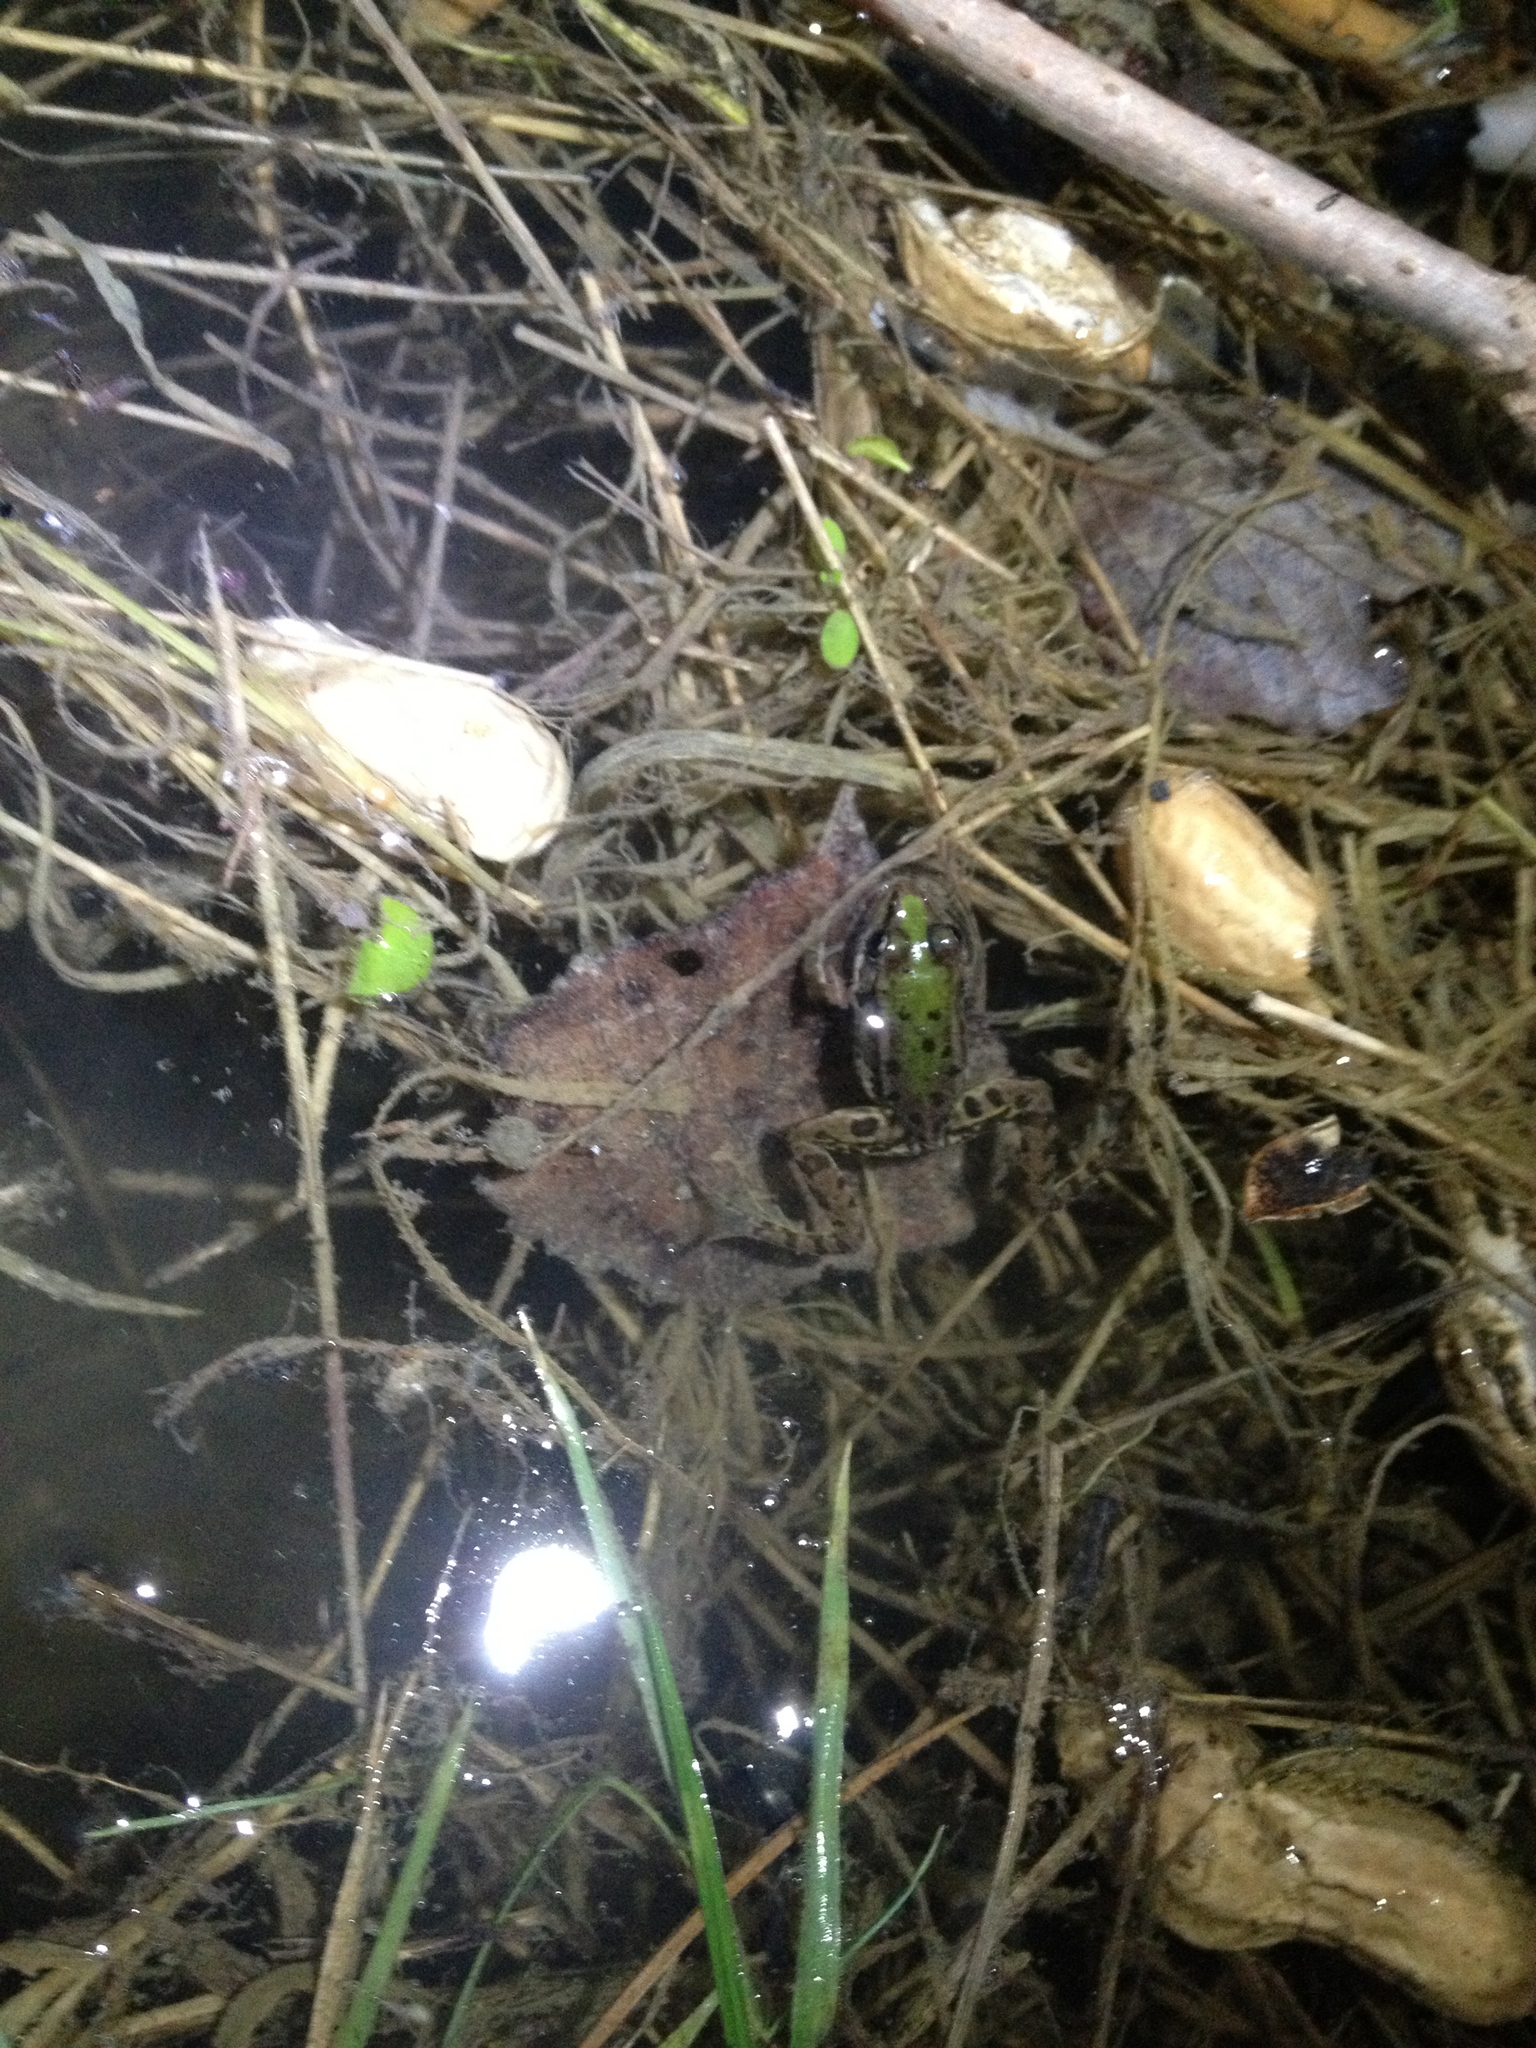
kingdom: Animalia
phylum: Chordata
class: Amphibia
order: Anura
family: Ranidae
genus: Pelophylax
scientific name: Pelophylax
